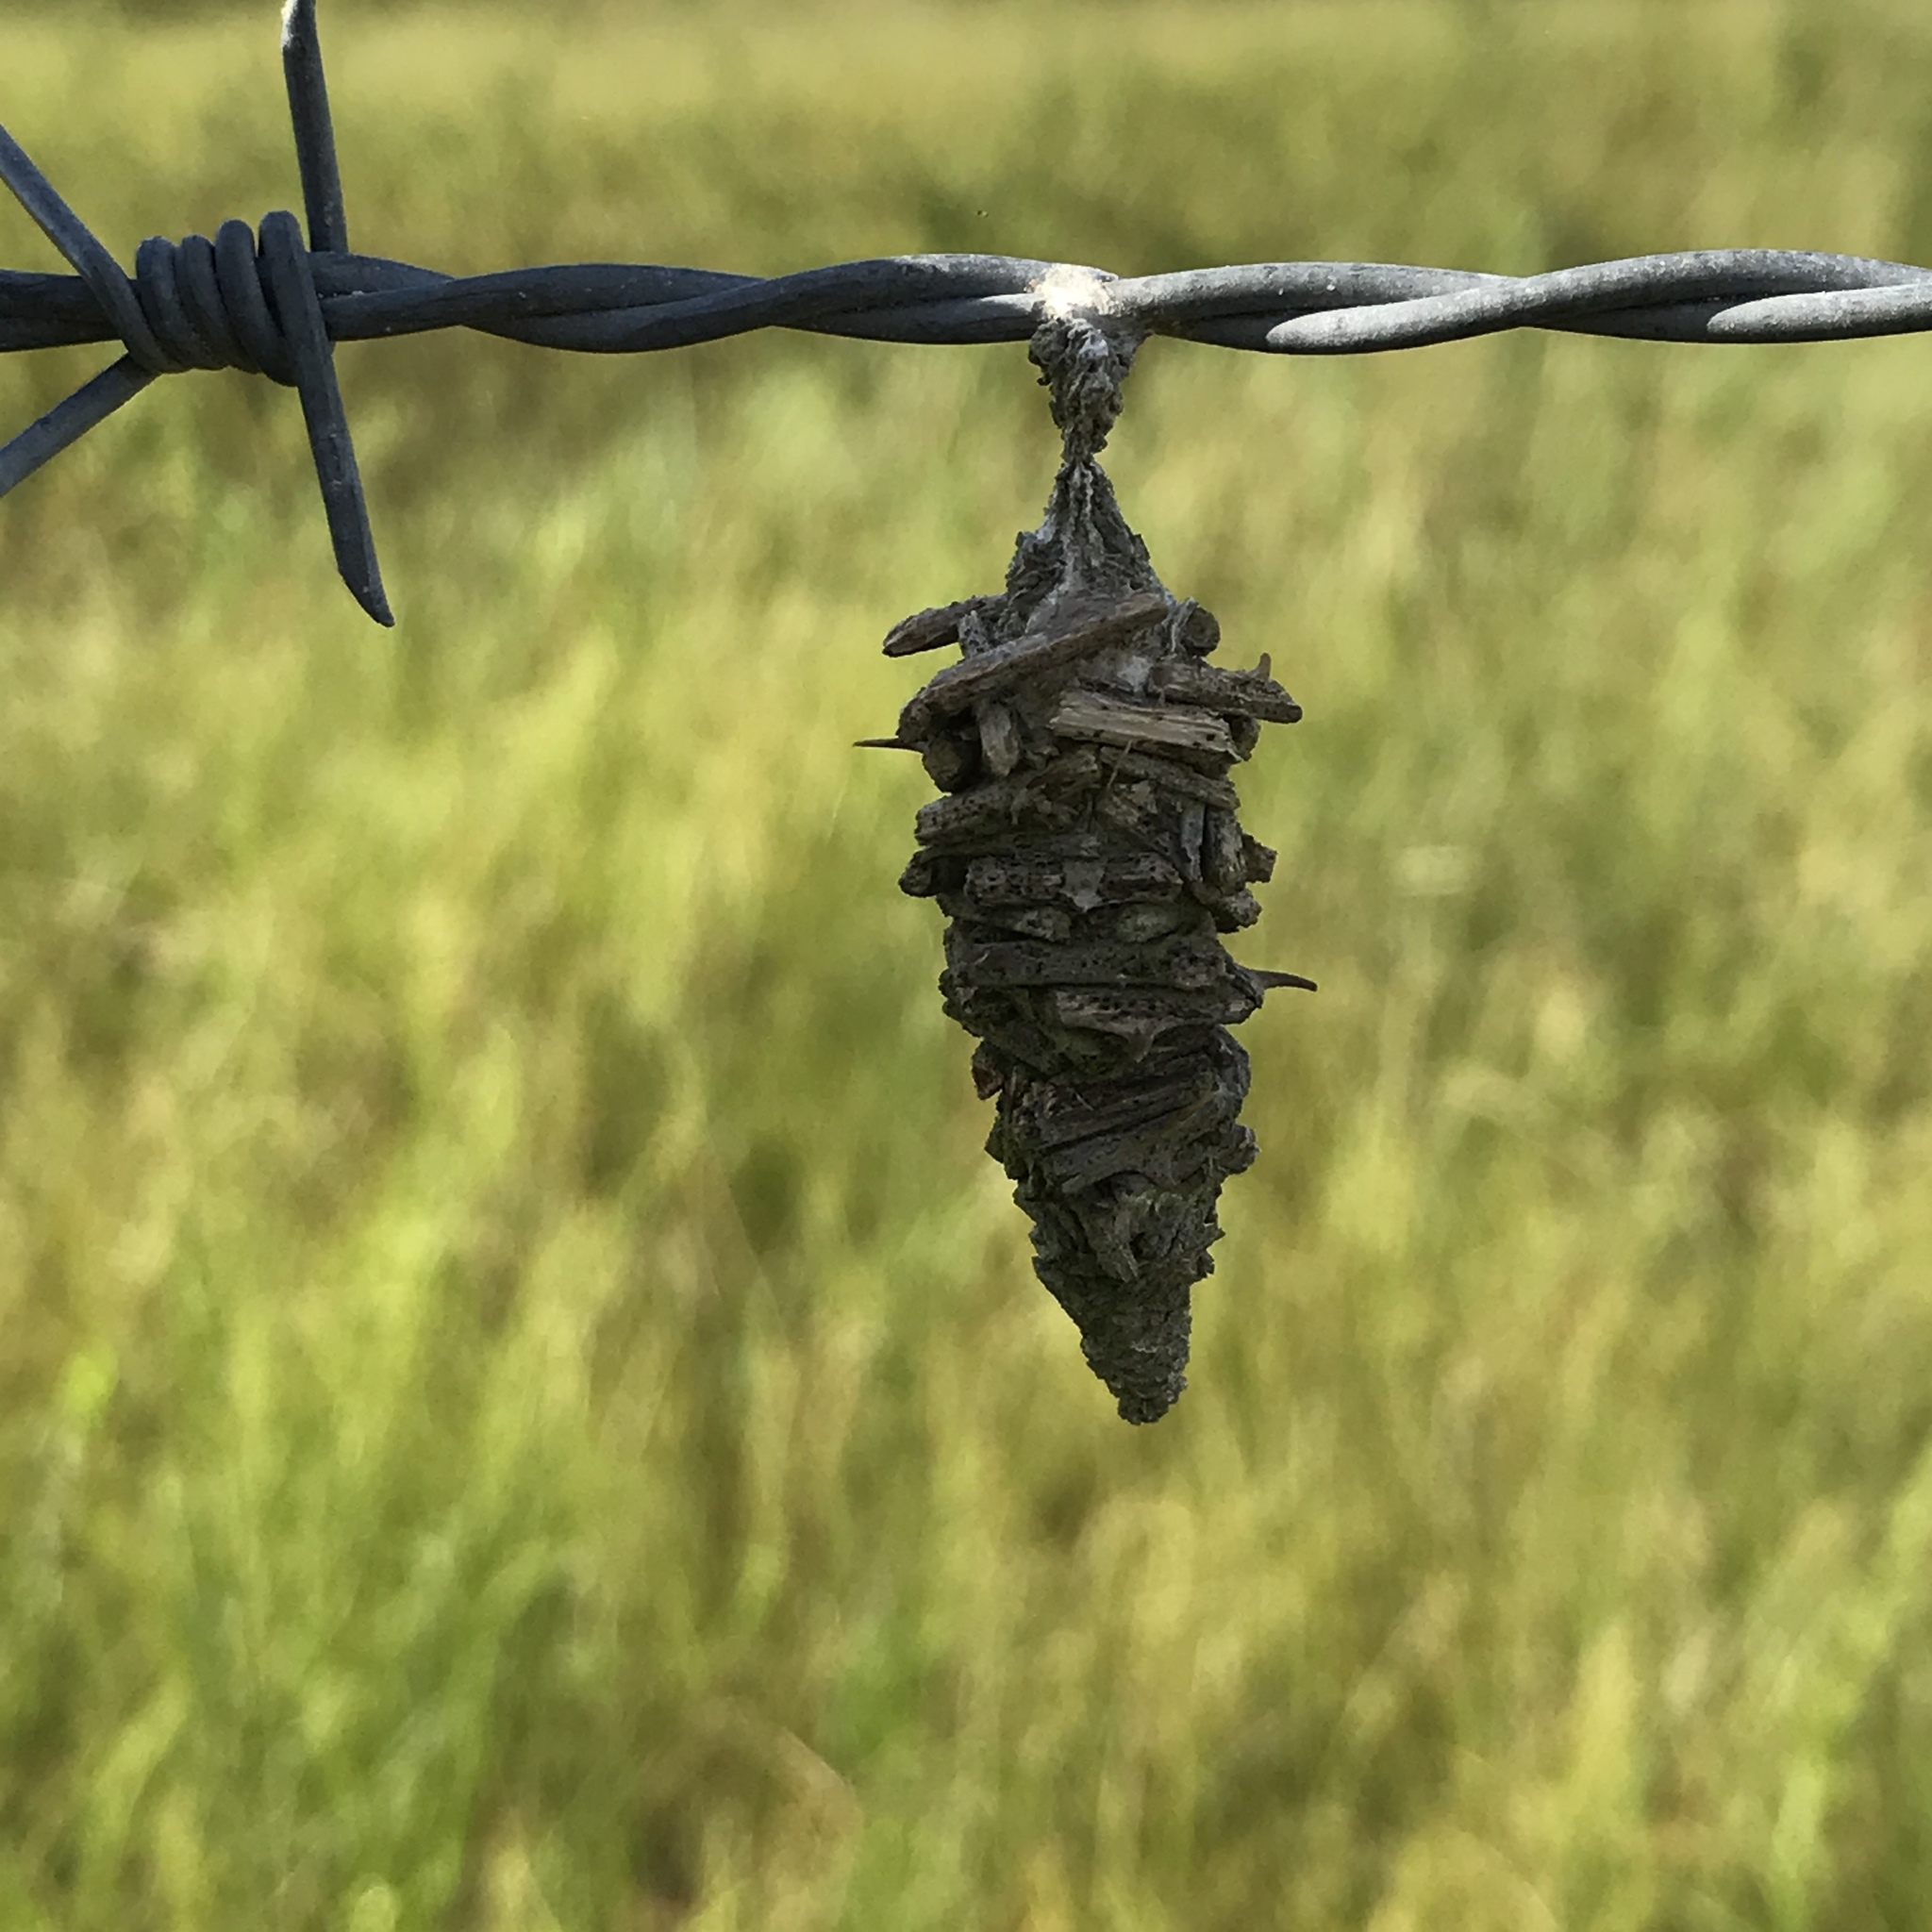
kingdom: Animalia
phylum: Arthropoda
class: Insecta
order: Lepidoptera
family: Psychidae
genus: Oiketicus
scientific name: Oiketicus
